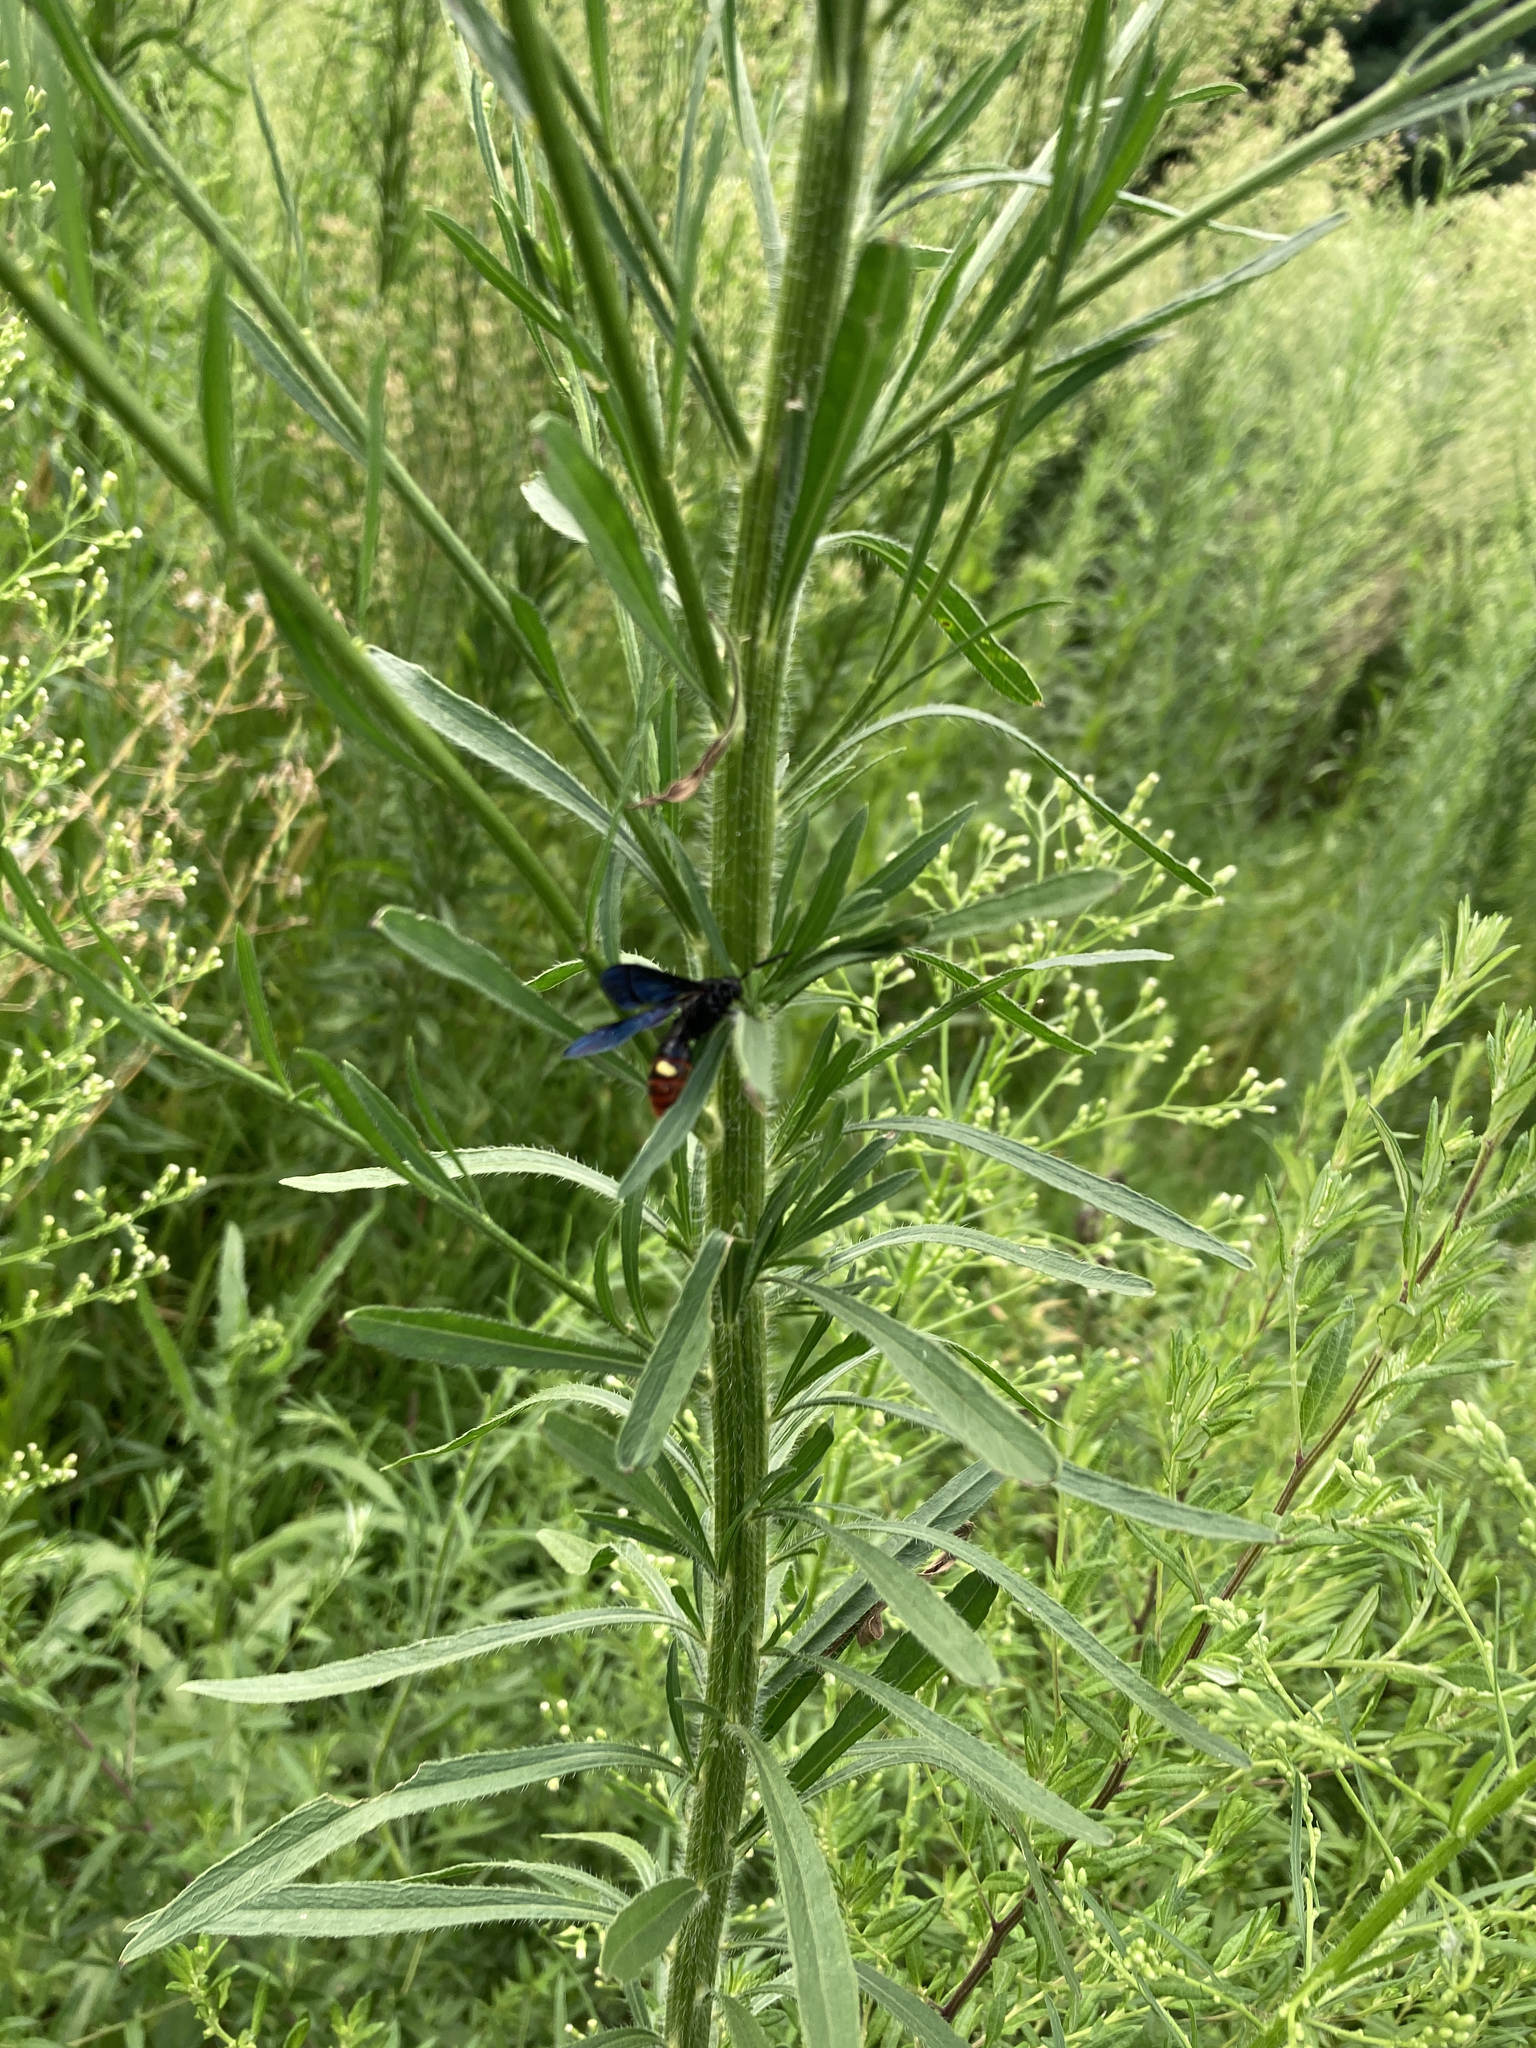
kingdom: Animalia
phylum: Arthropoda
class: Insecta
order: Hymenoptera
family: Scoliidae
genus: Scolia
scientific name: Scolia dubia
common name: Blue-winged scoliid wasp
